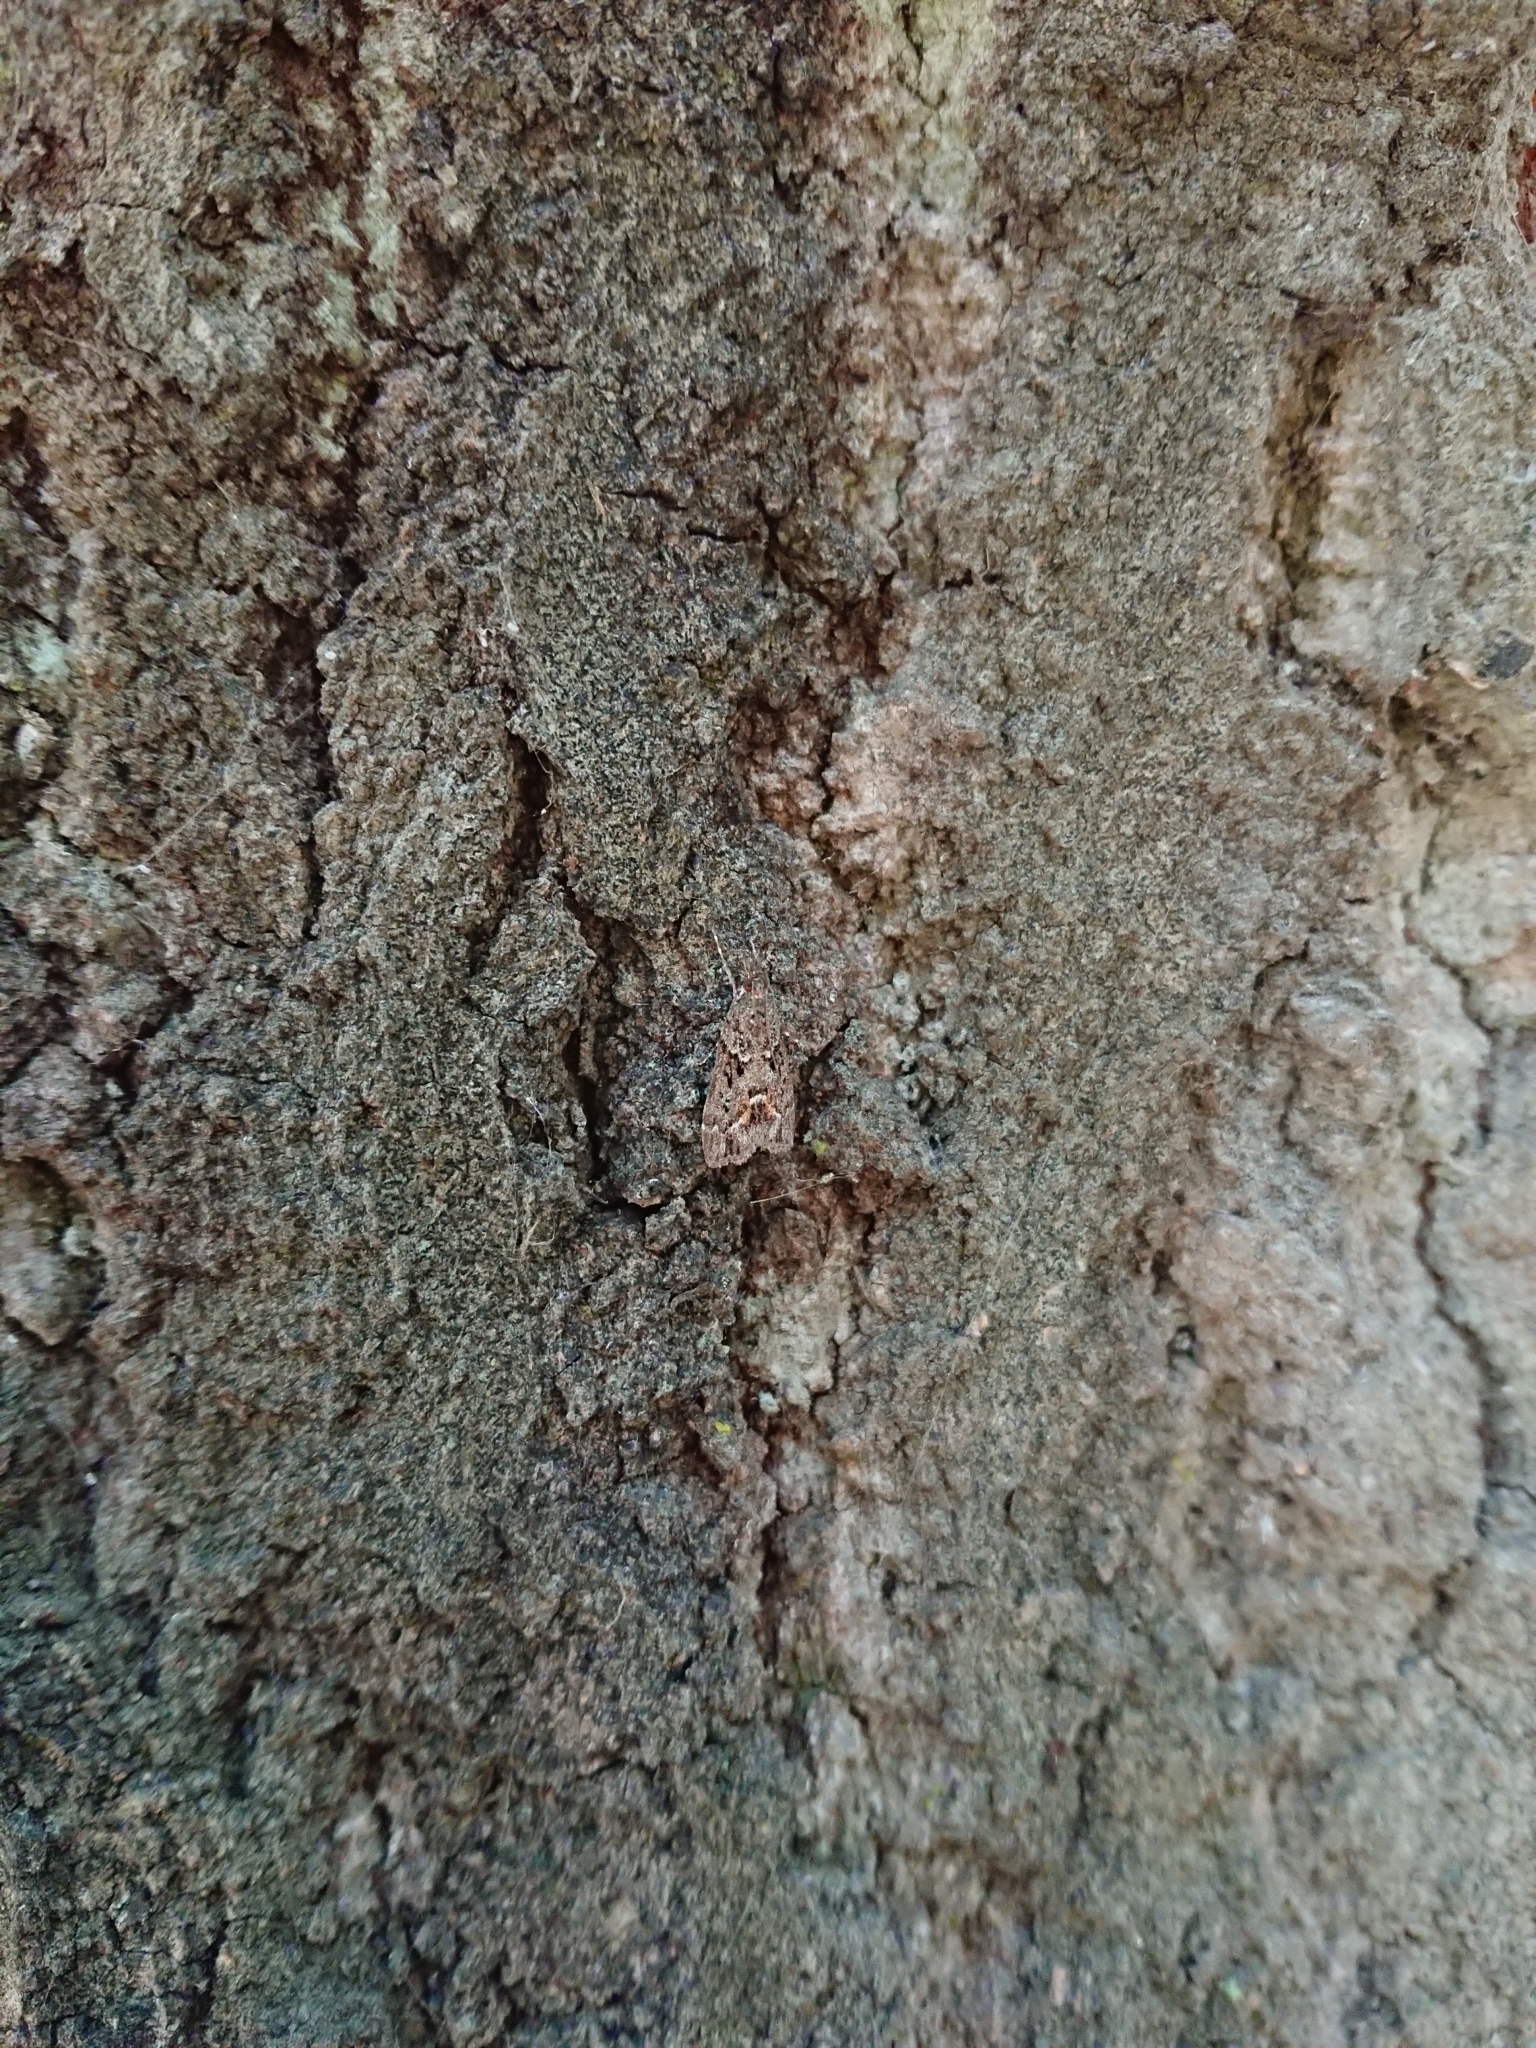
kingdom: Animalia
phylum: Arthropoda
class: Insecta
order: Lepidoptera
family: Crambidae
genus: Eudonia
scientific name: Eudonia submarginalis
